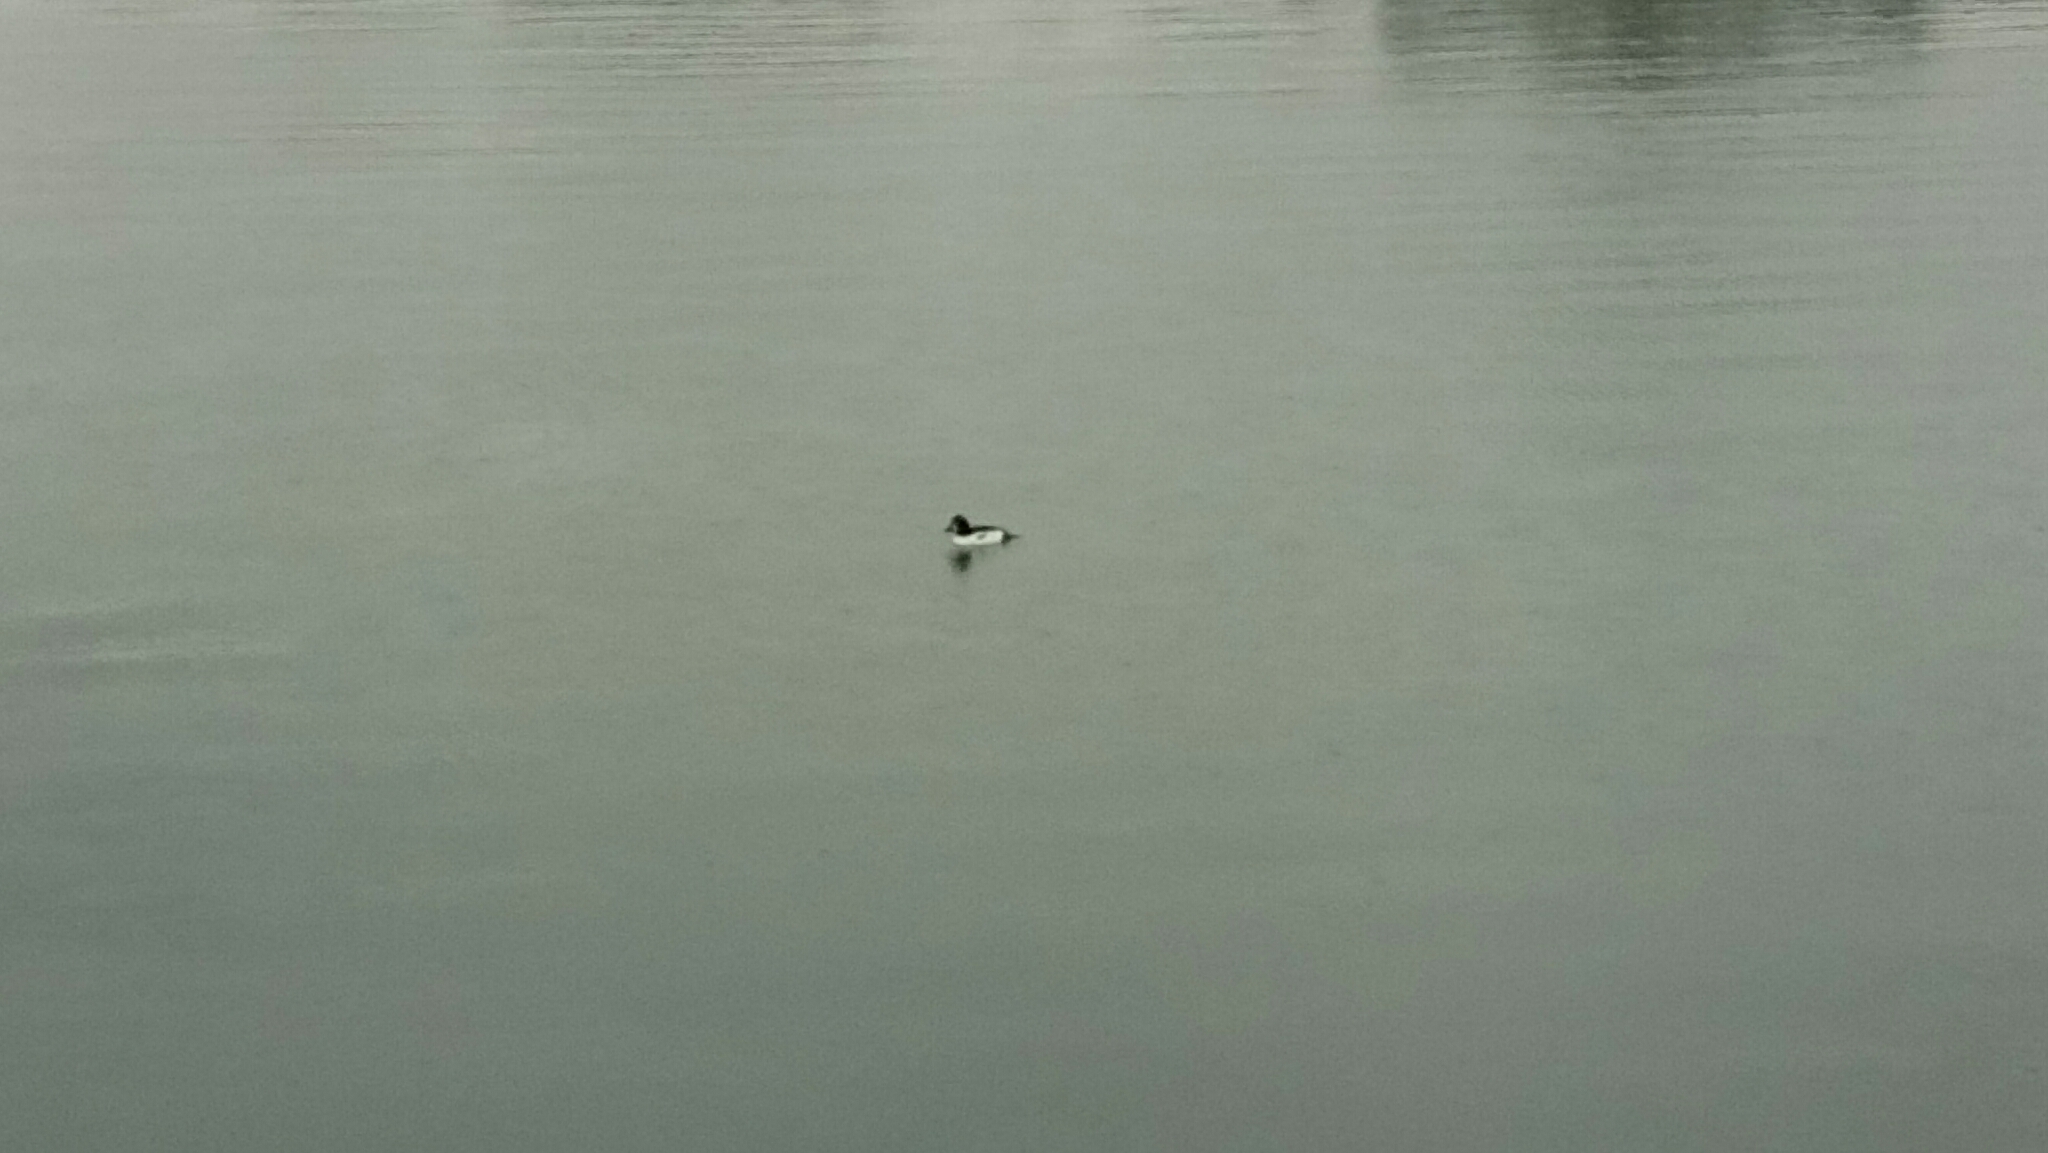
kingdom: Animalia
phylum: Chordata
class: Aves
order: Anseriformes
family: Anatidae
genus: Bucephala
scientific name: Bucephala clangula
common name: Common goldeneye
